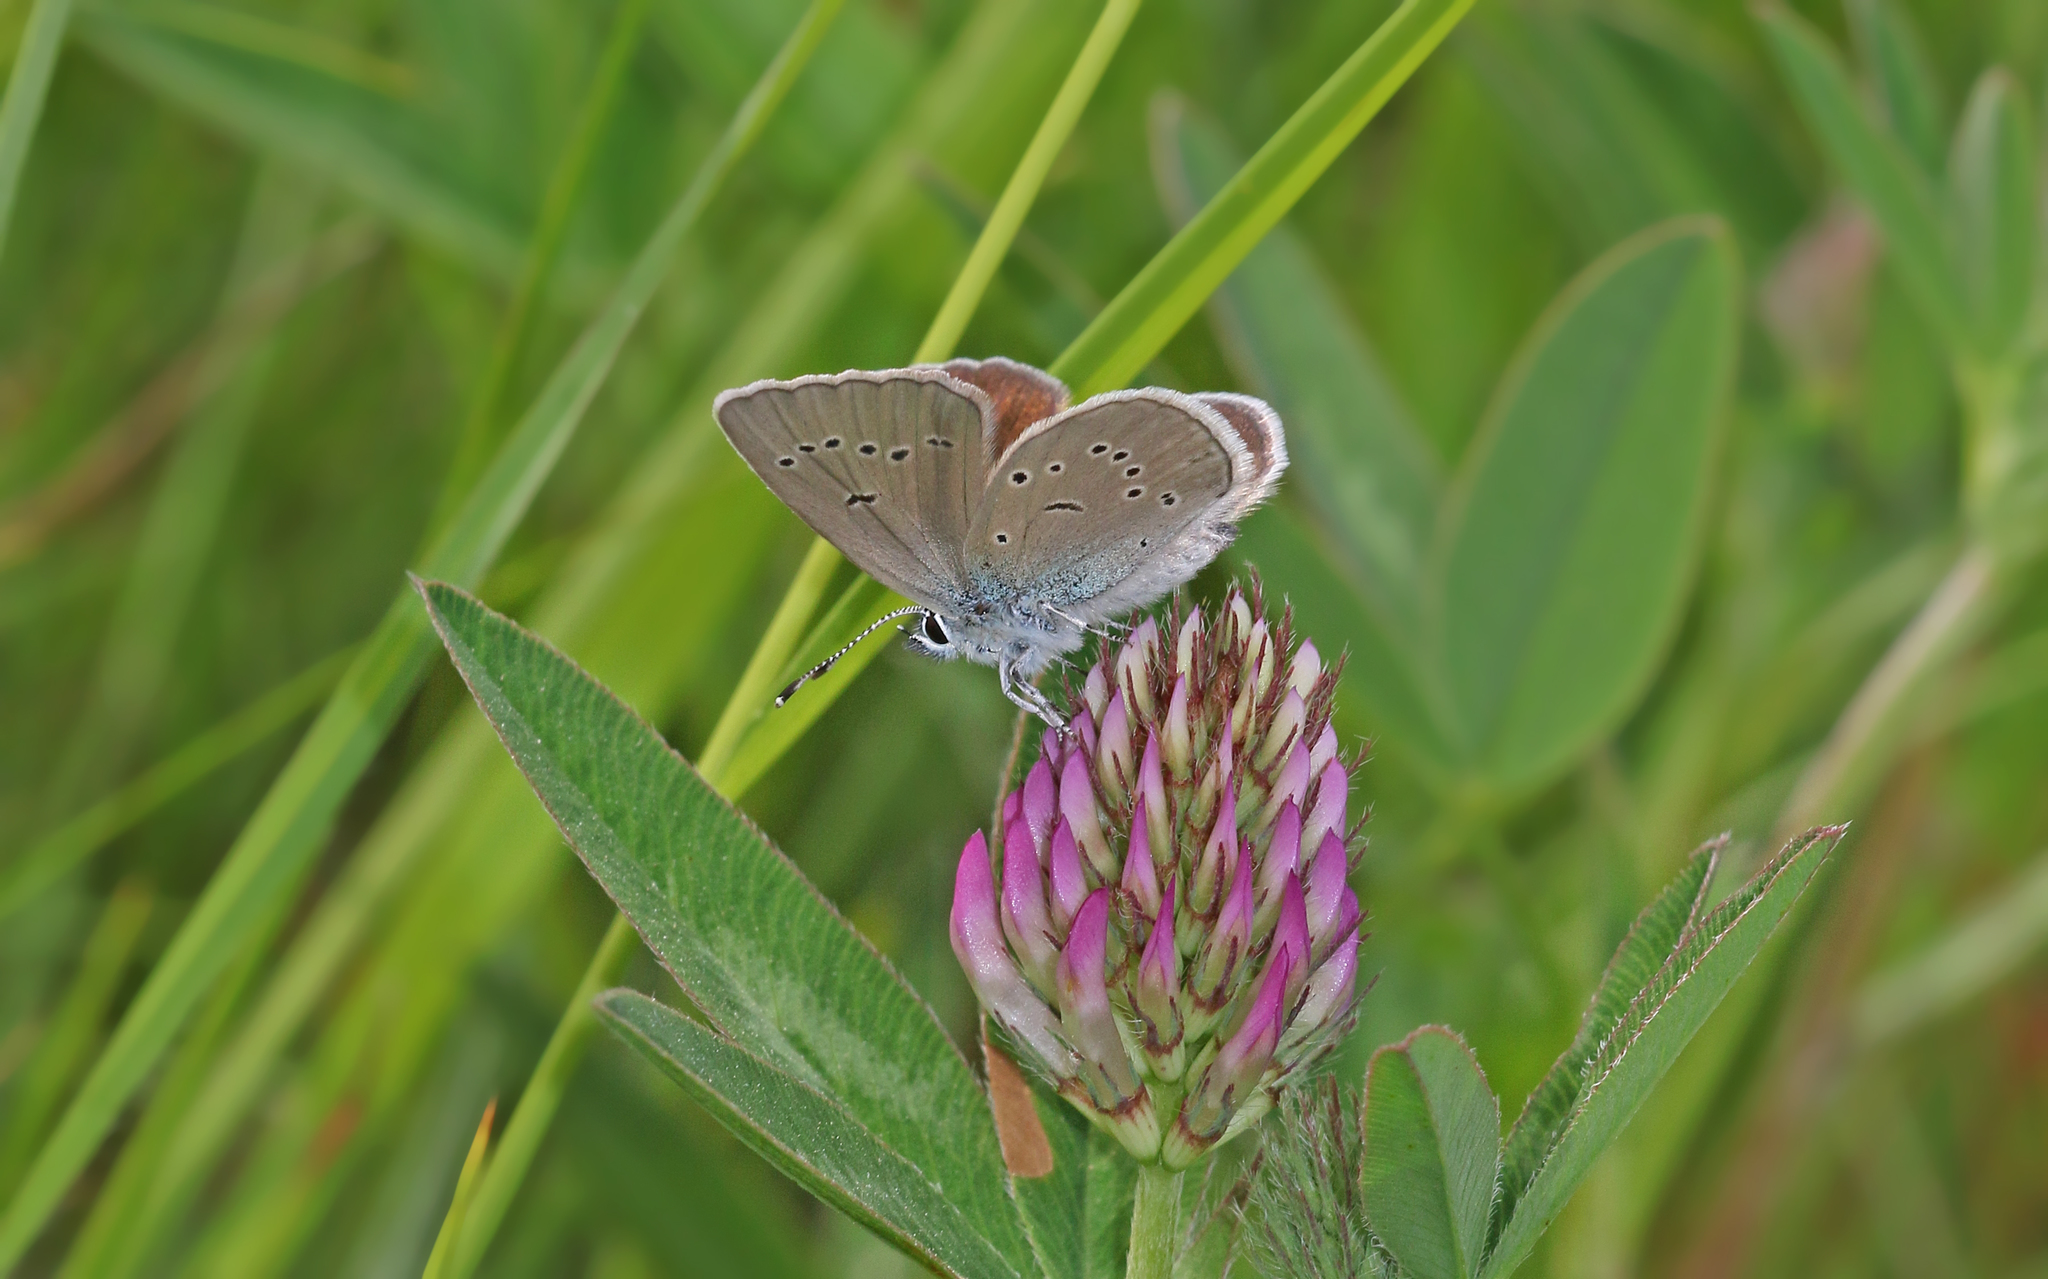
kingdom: Animalia
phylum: Arthropoda
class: Insecta
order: Lepidoptera
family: Lycaenidae
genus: Cyaniris
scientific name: Cyaniris semiargus
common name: Mazarine blue
